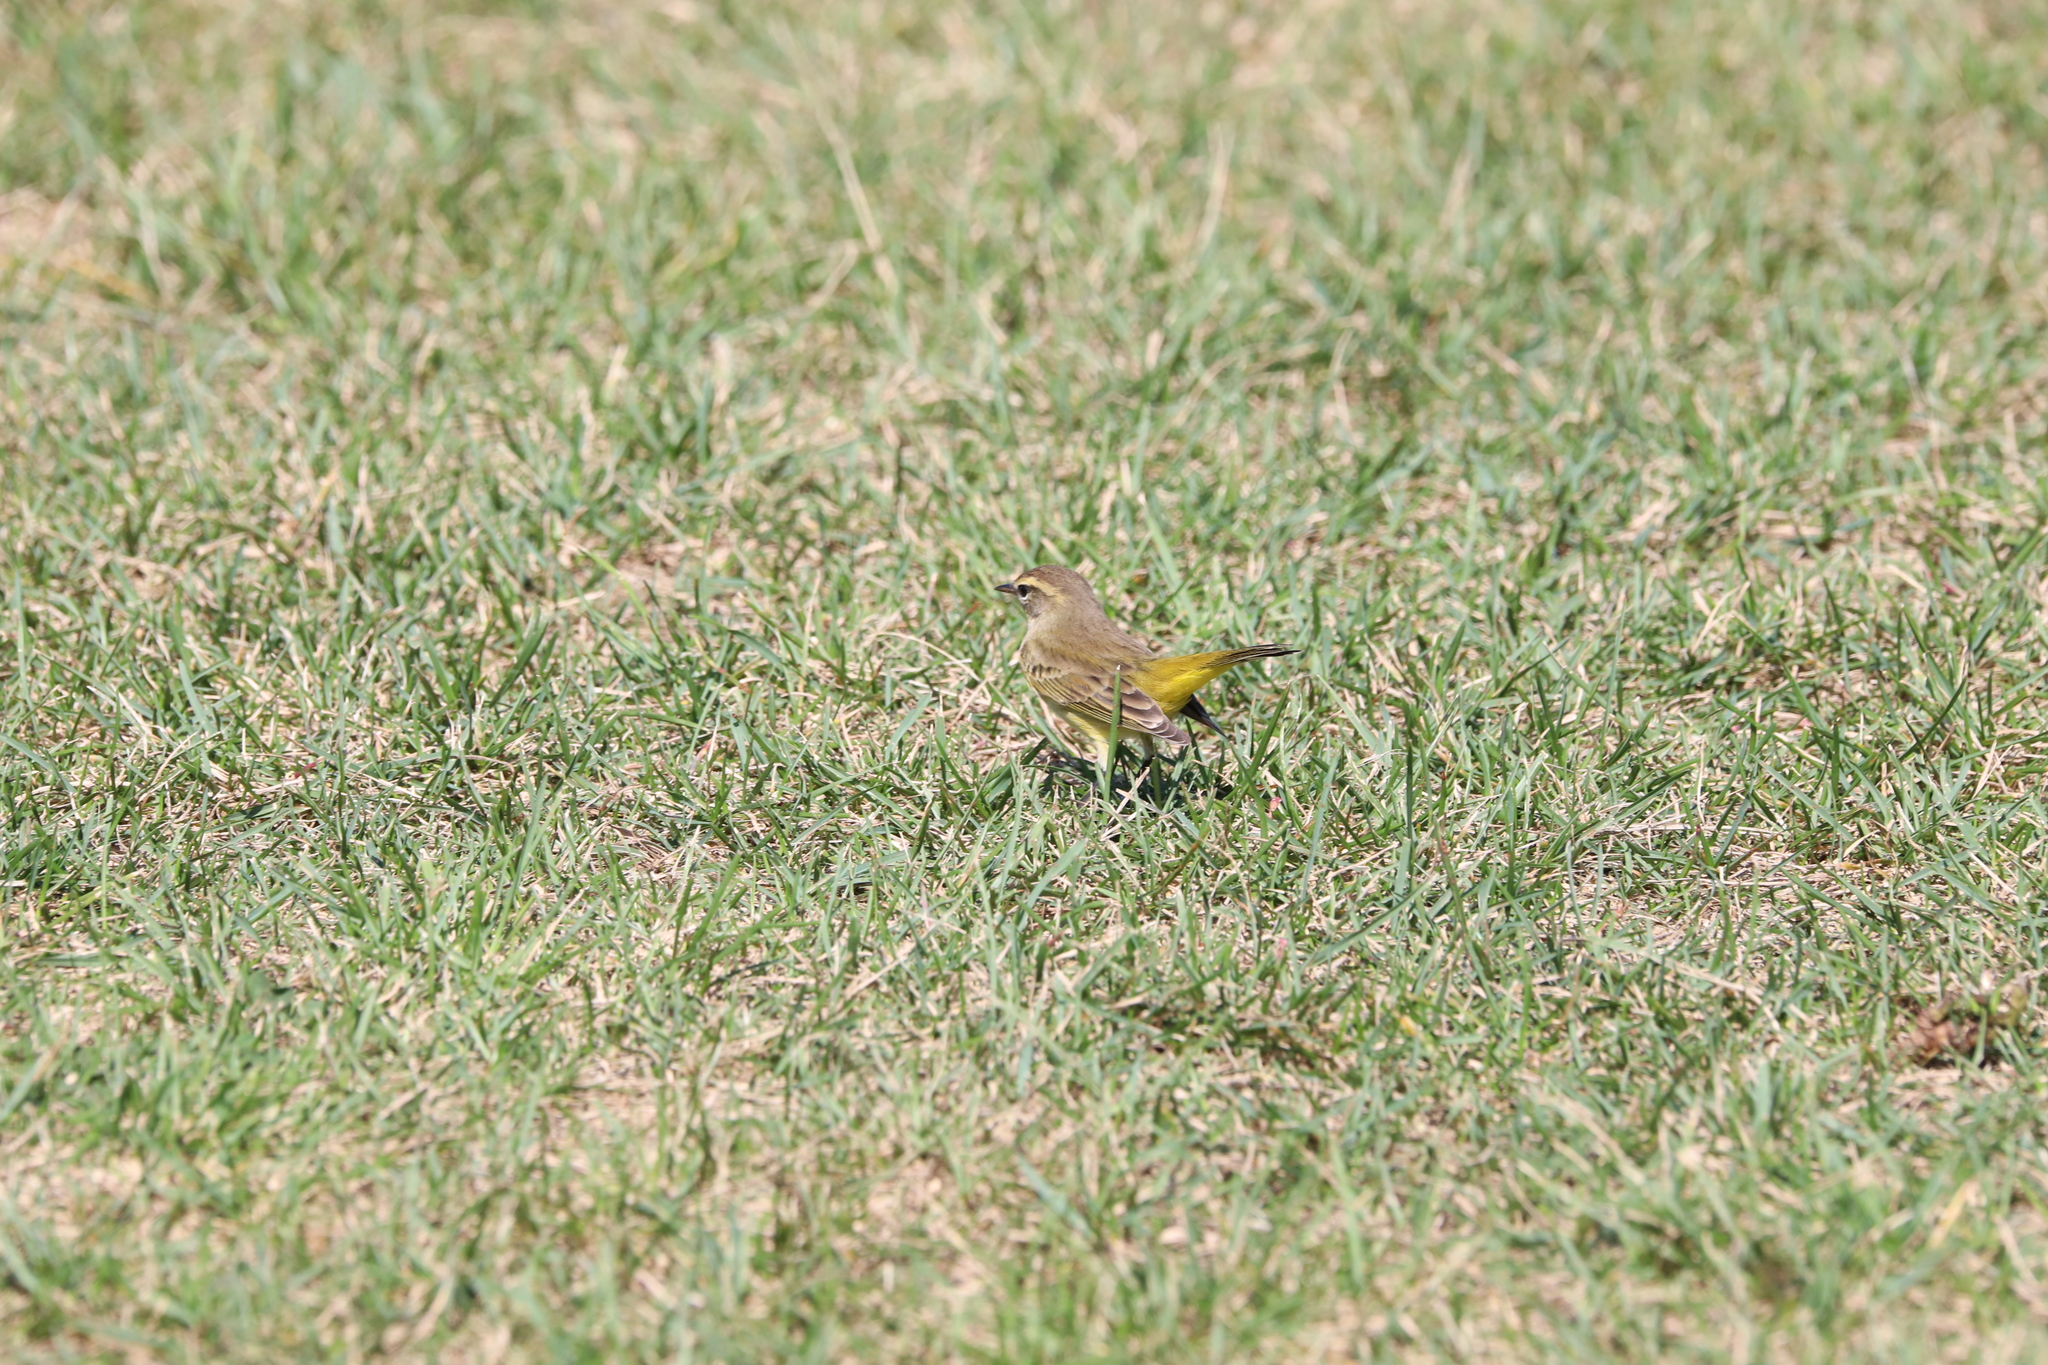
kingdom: Animalia
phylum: Chordata
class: Aves
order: Passeriformes
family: Parulidae
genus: Setophaga
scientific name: Setophaga palmarum
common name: Palm warbler
